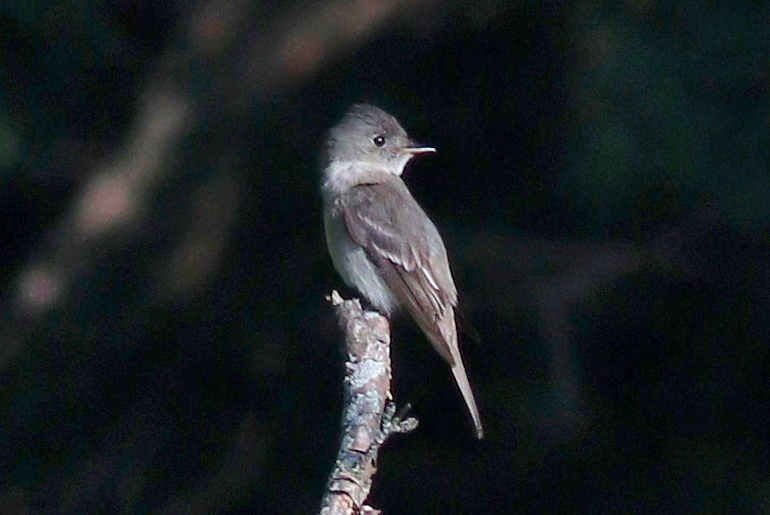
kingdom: Animalia
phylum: Chordata
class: Aves
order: Passeriformes
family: Tyrannidae
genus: Contopus
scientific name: Contopus virens
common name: Eastern wood-pewee
